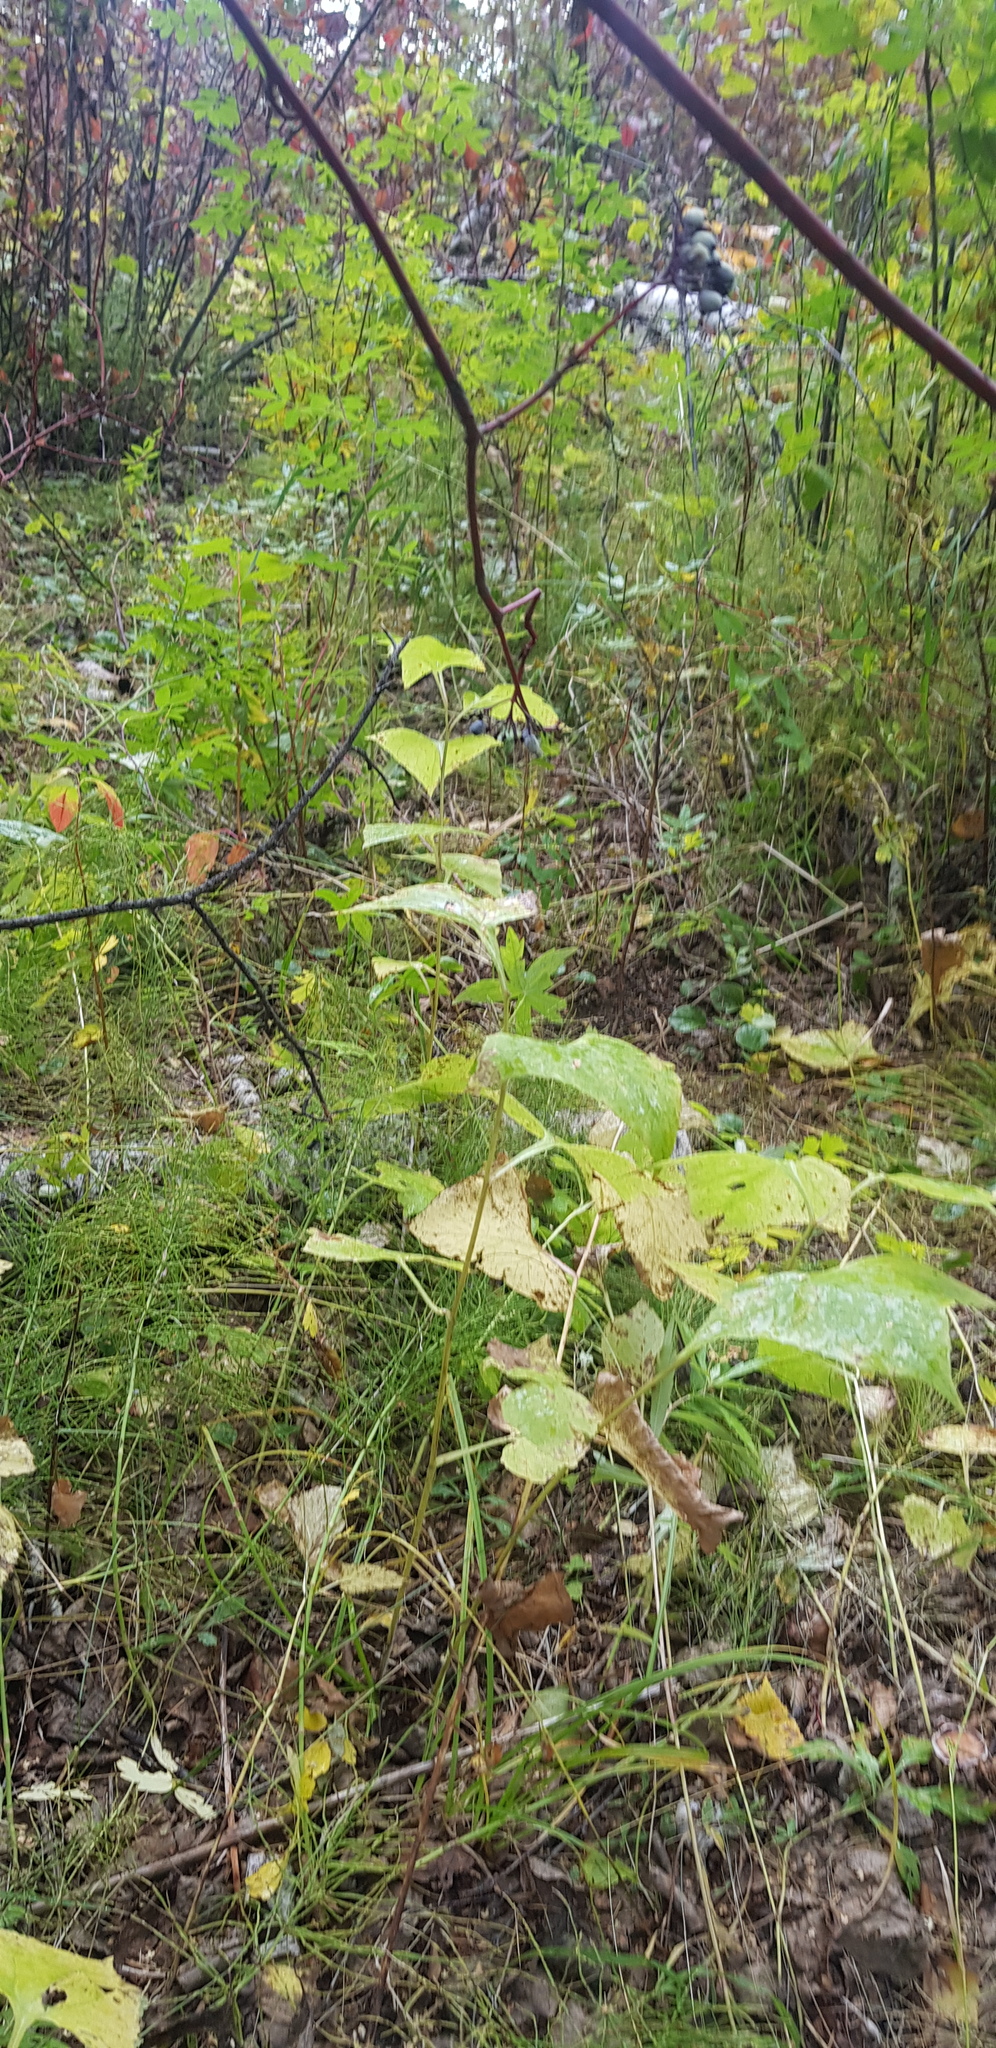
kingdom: Plantae
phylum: Tracheophyta
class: Magnoliopsida
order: Asterales
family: Asteraceae
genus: Parasenecio
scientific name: Parasenecio hastatus
